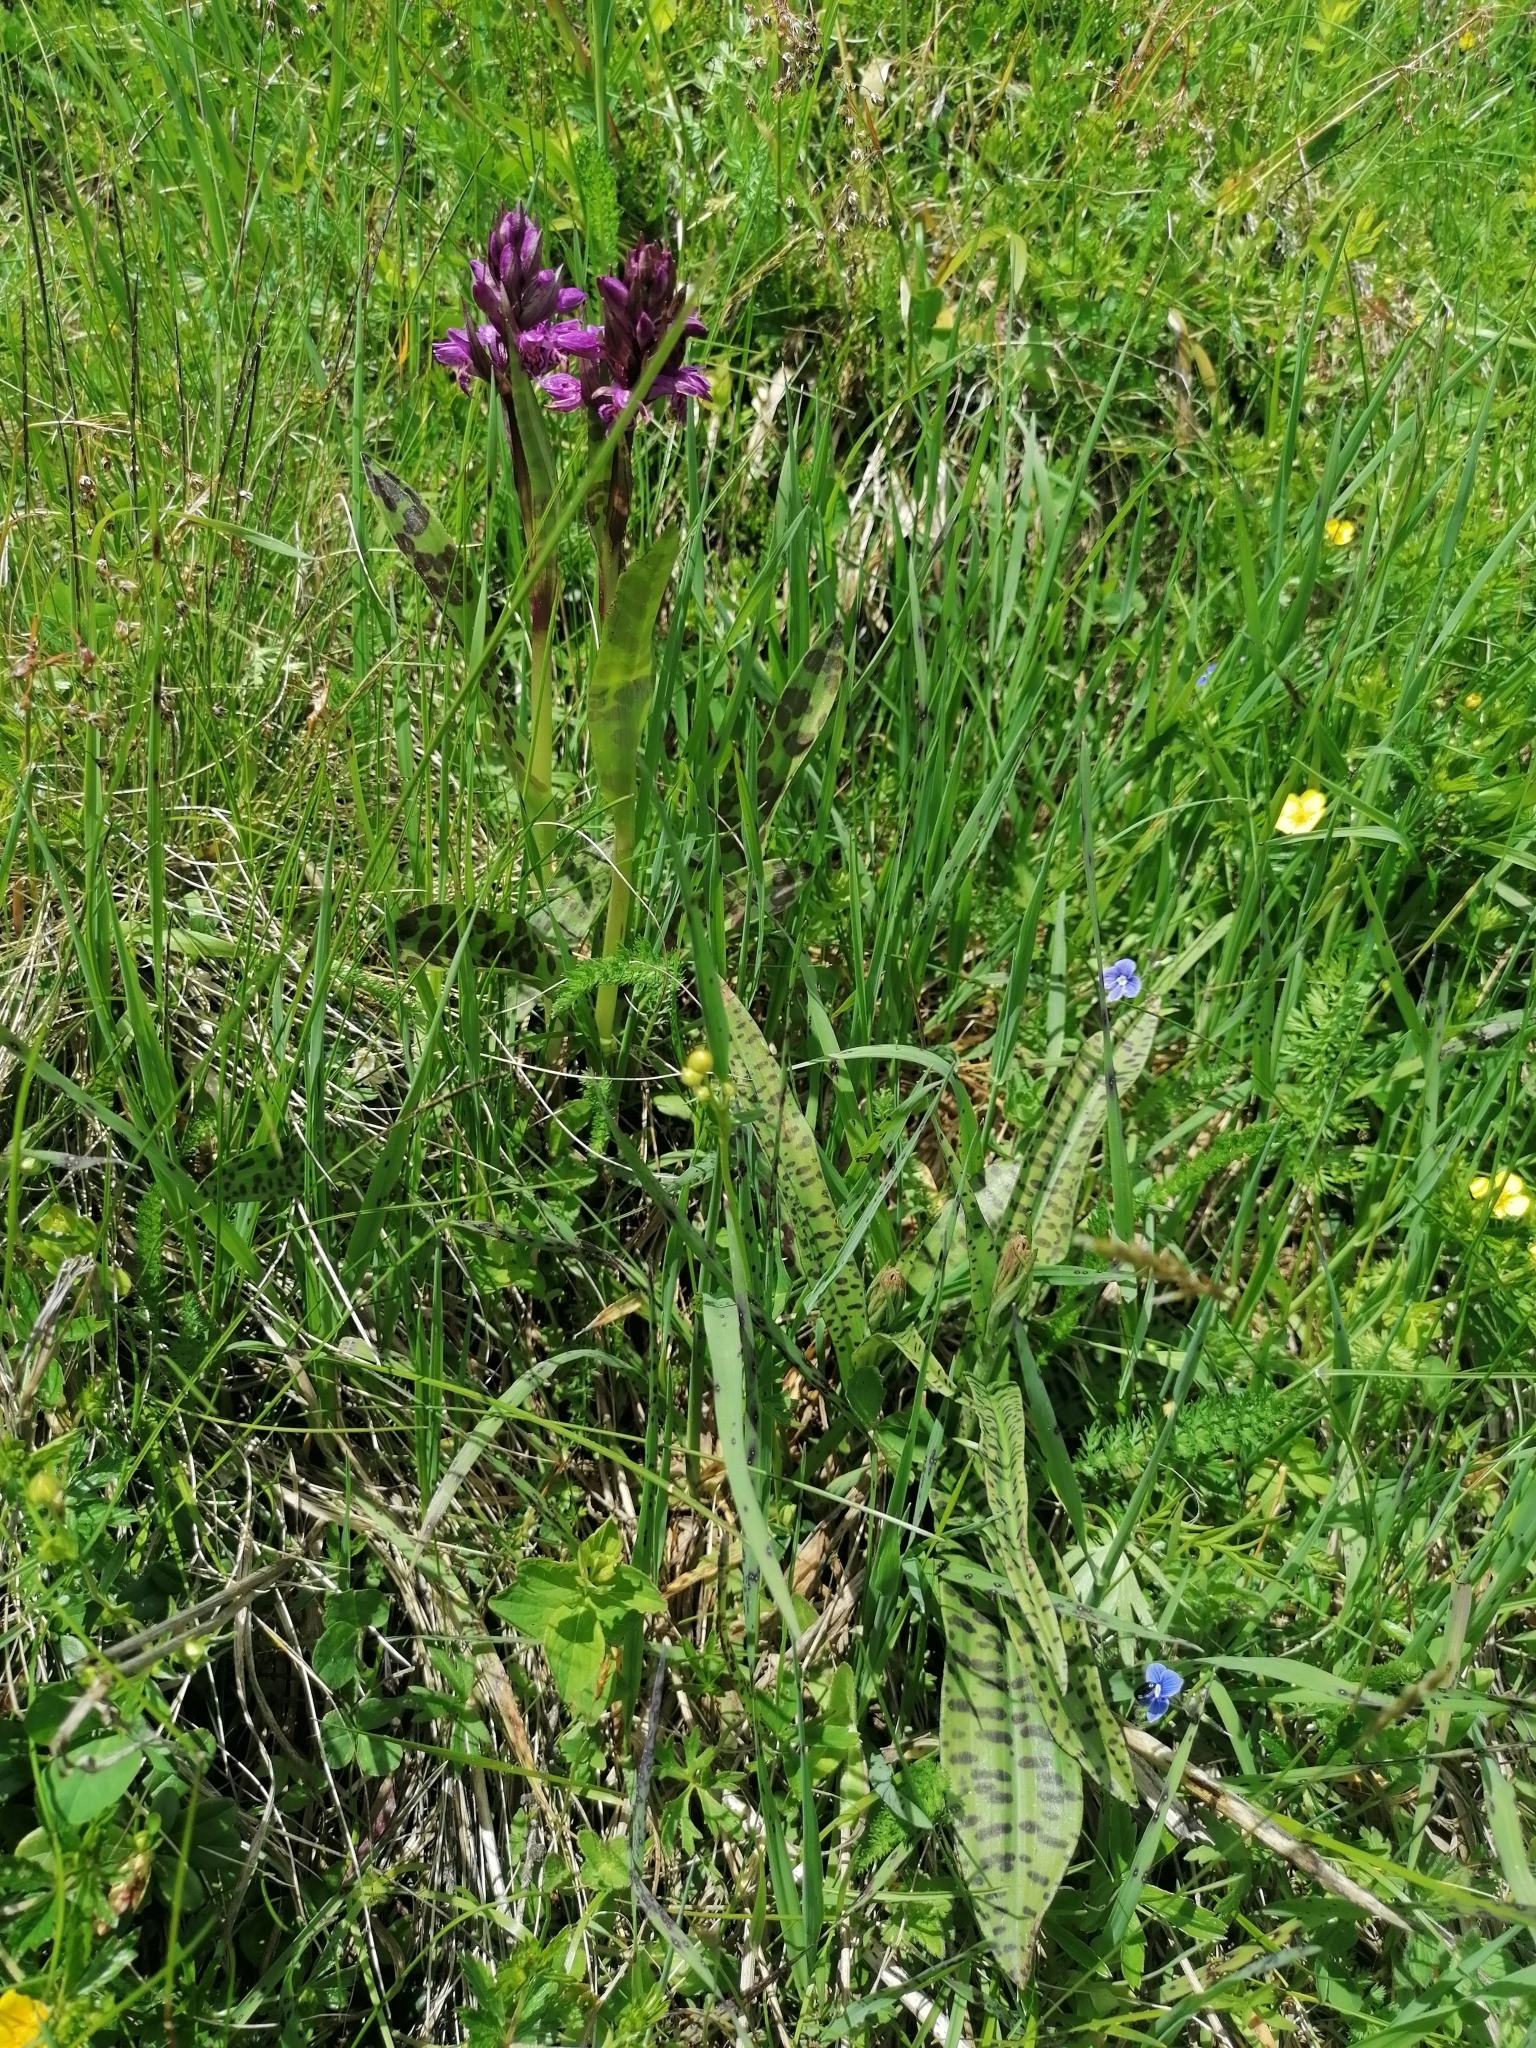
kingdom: Plantae
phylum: Tracheophyta
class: Liliopsida
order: Asparagales
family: Orchidaceae
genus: Dactylorhiza
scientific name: Dactylorhiza majalis
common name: Marsh orchid
